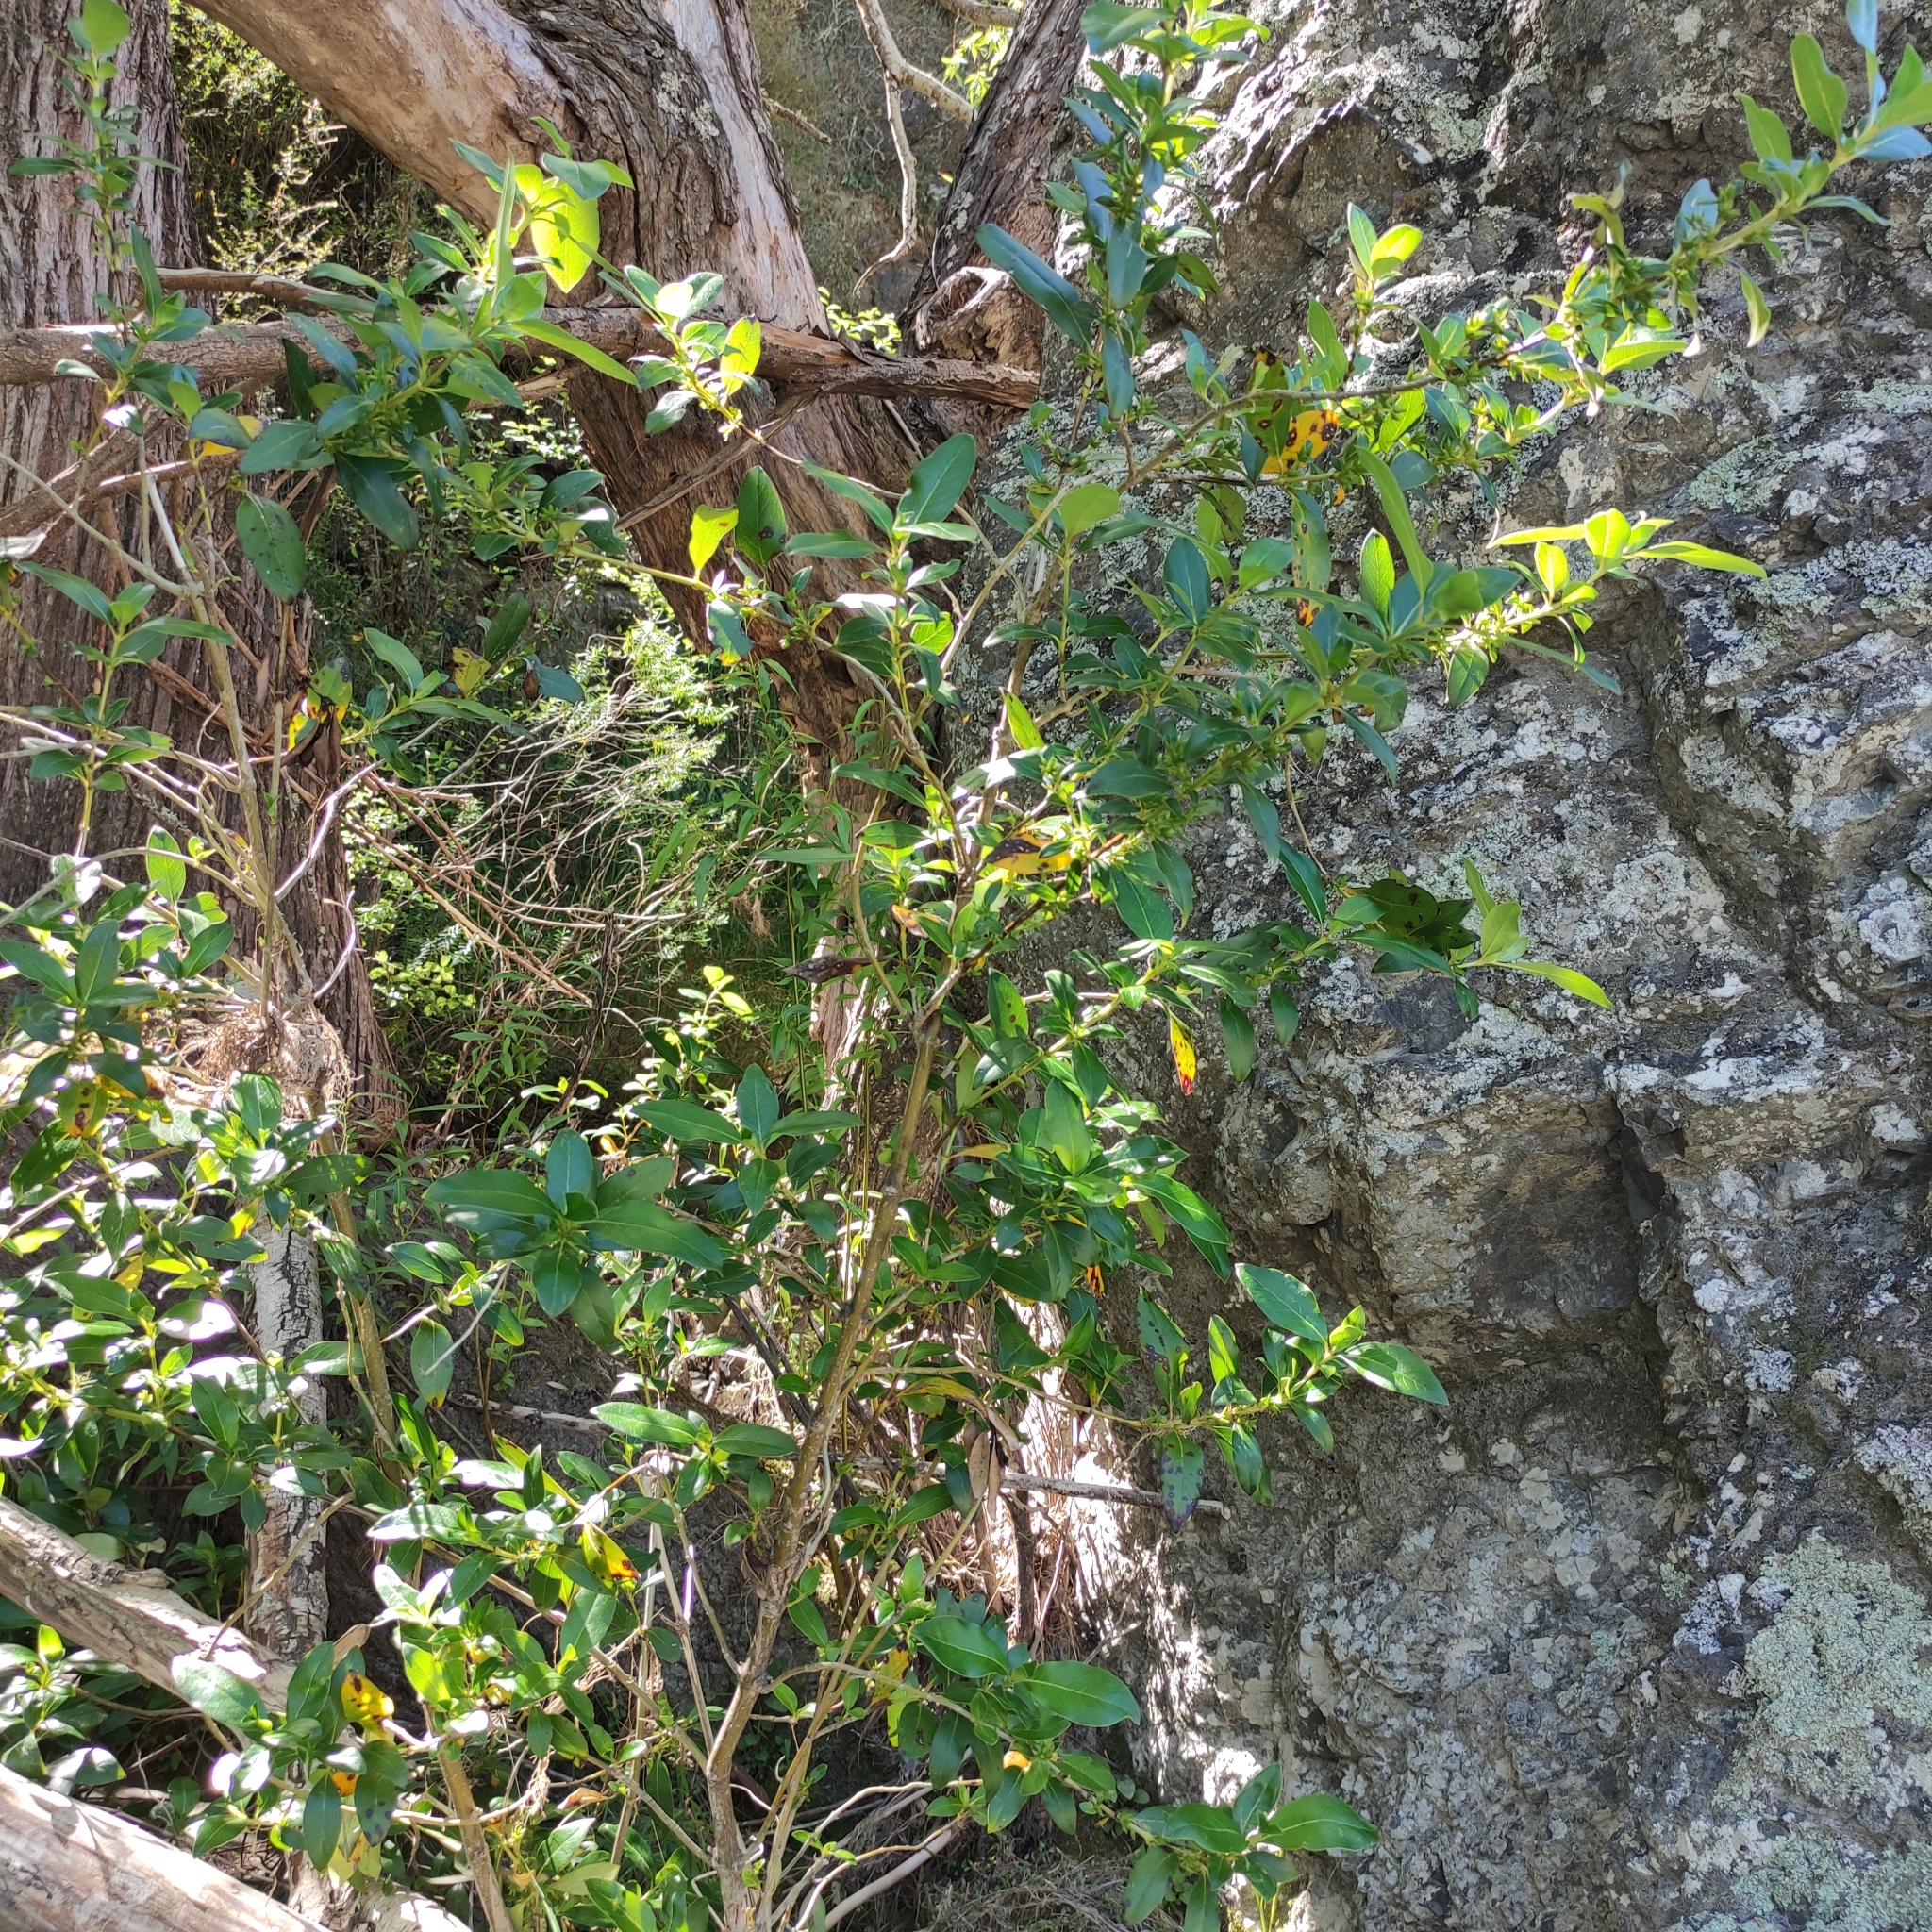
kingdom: Plantae
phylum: Tracheophyta
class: Magnoliopsida
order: Gentianales
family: Rubiaceae
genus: Coprosma
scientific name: Coprosma robusta
